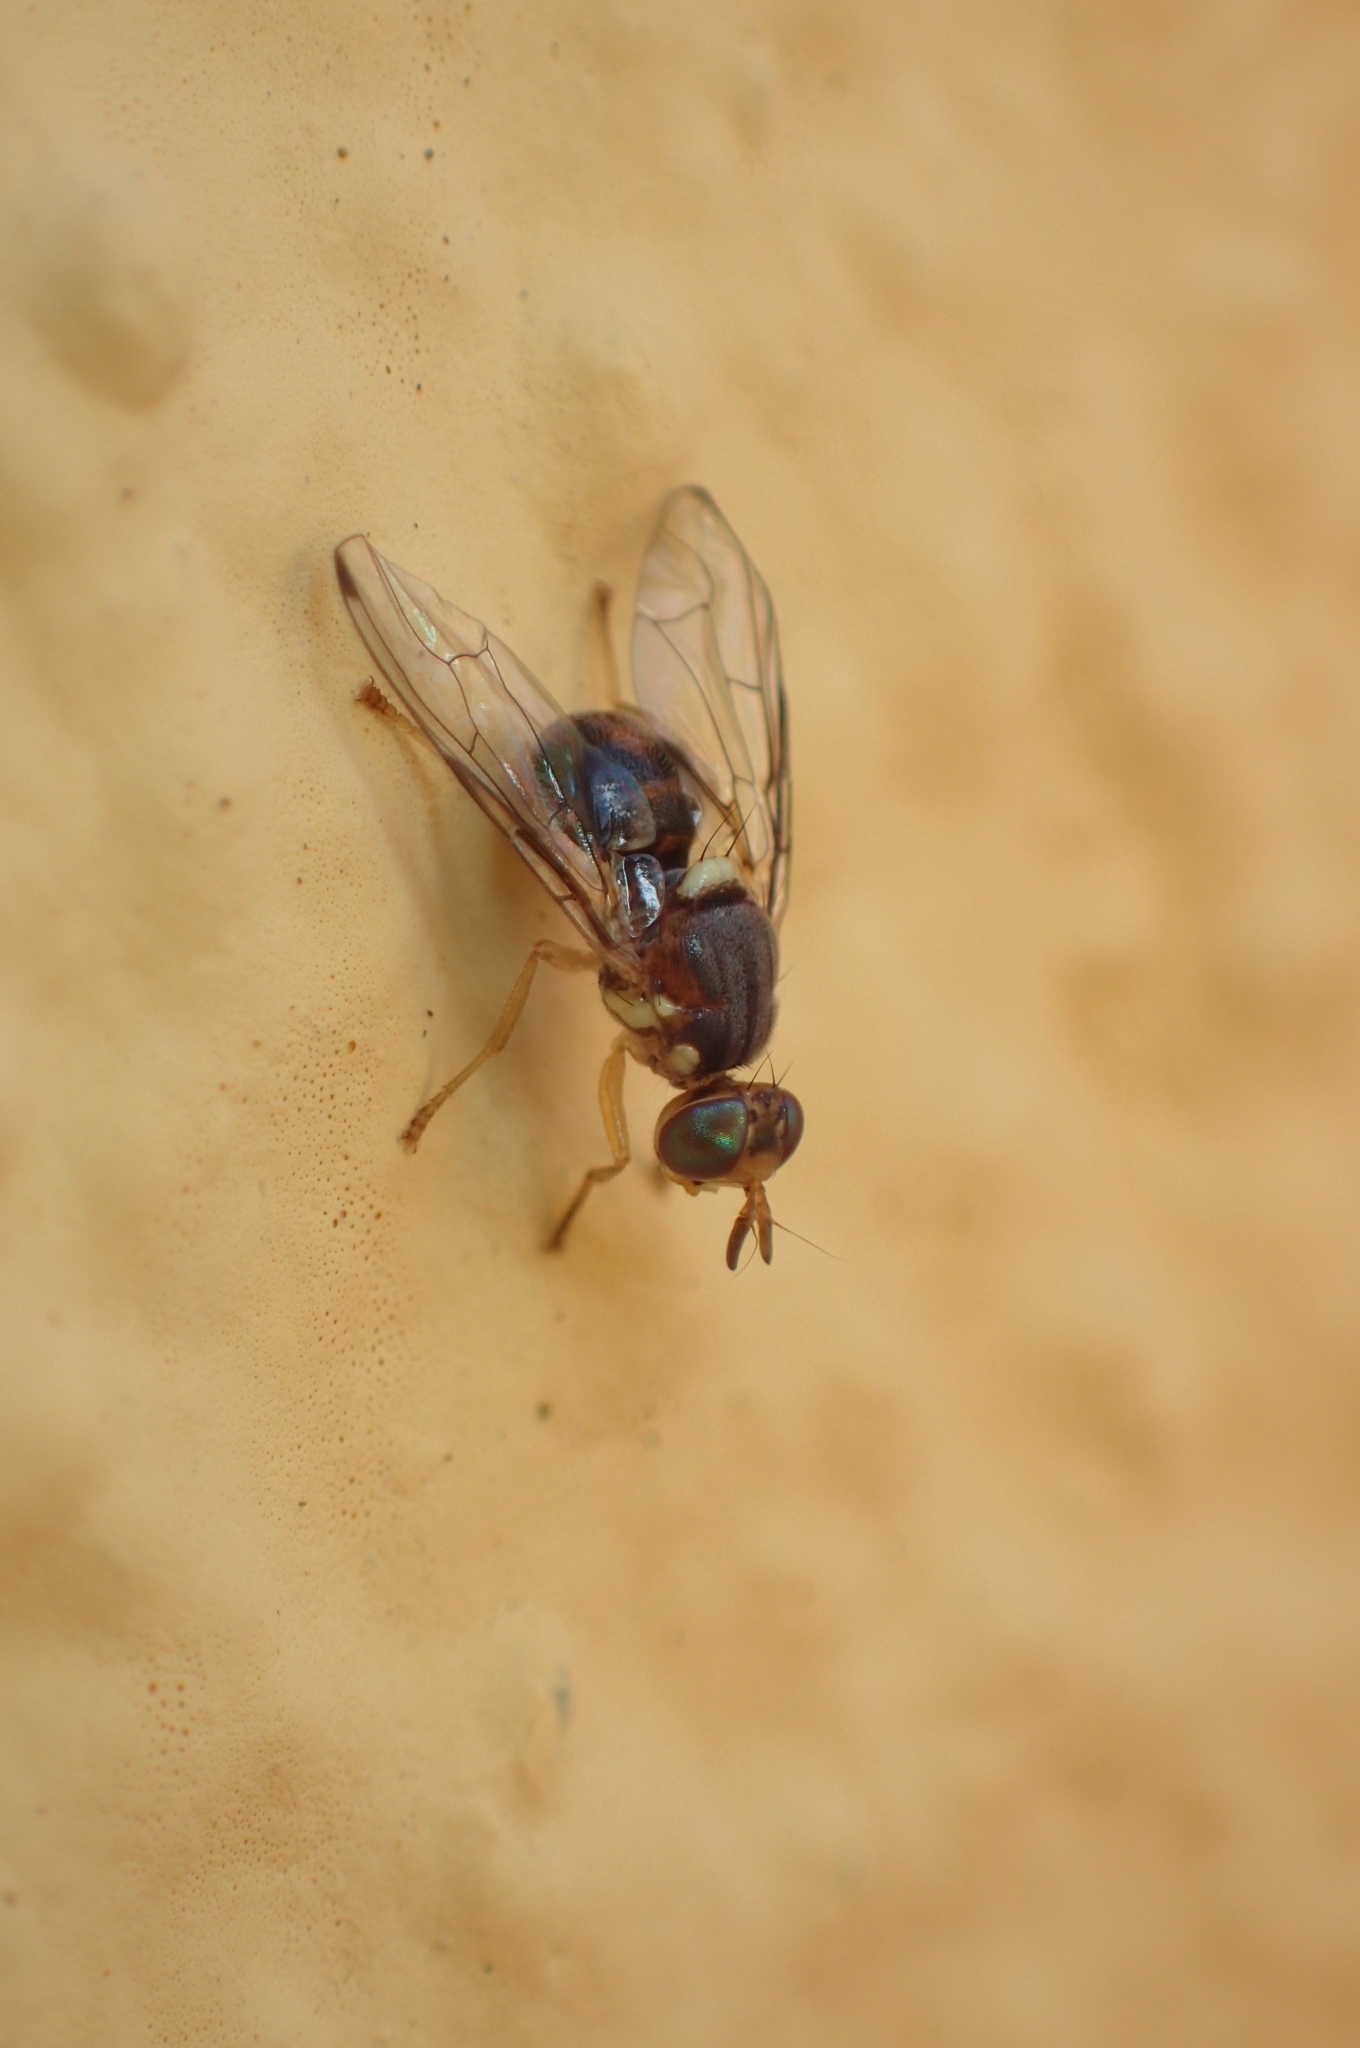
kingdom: Animalia
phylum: Arthropoda
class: Insecta
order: Diptera
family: Tephritidae
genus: Bactrocera
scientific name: Bactrocera oleae
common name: Olive fruit fly
